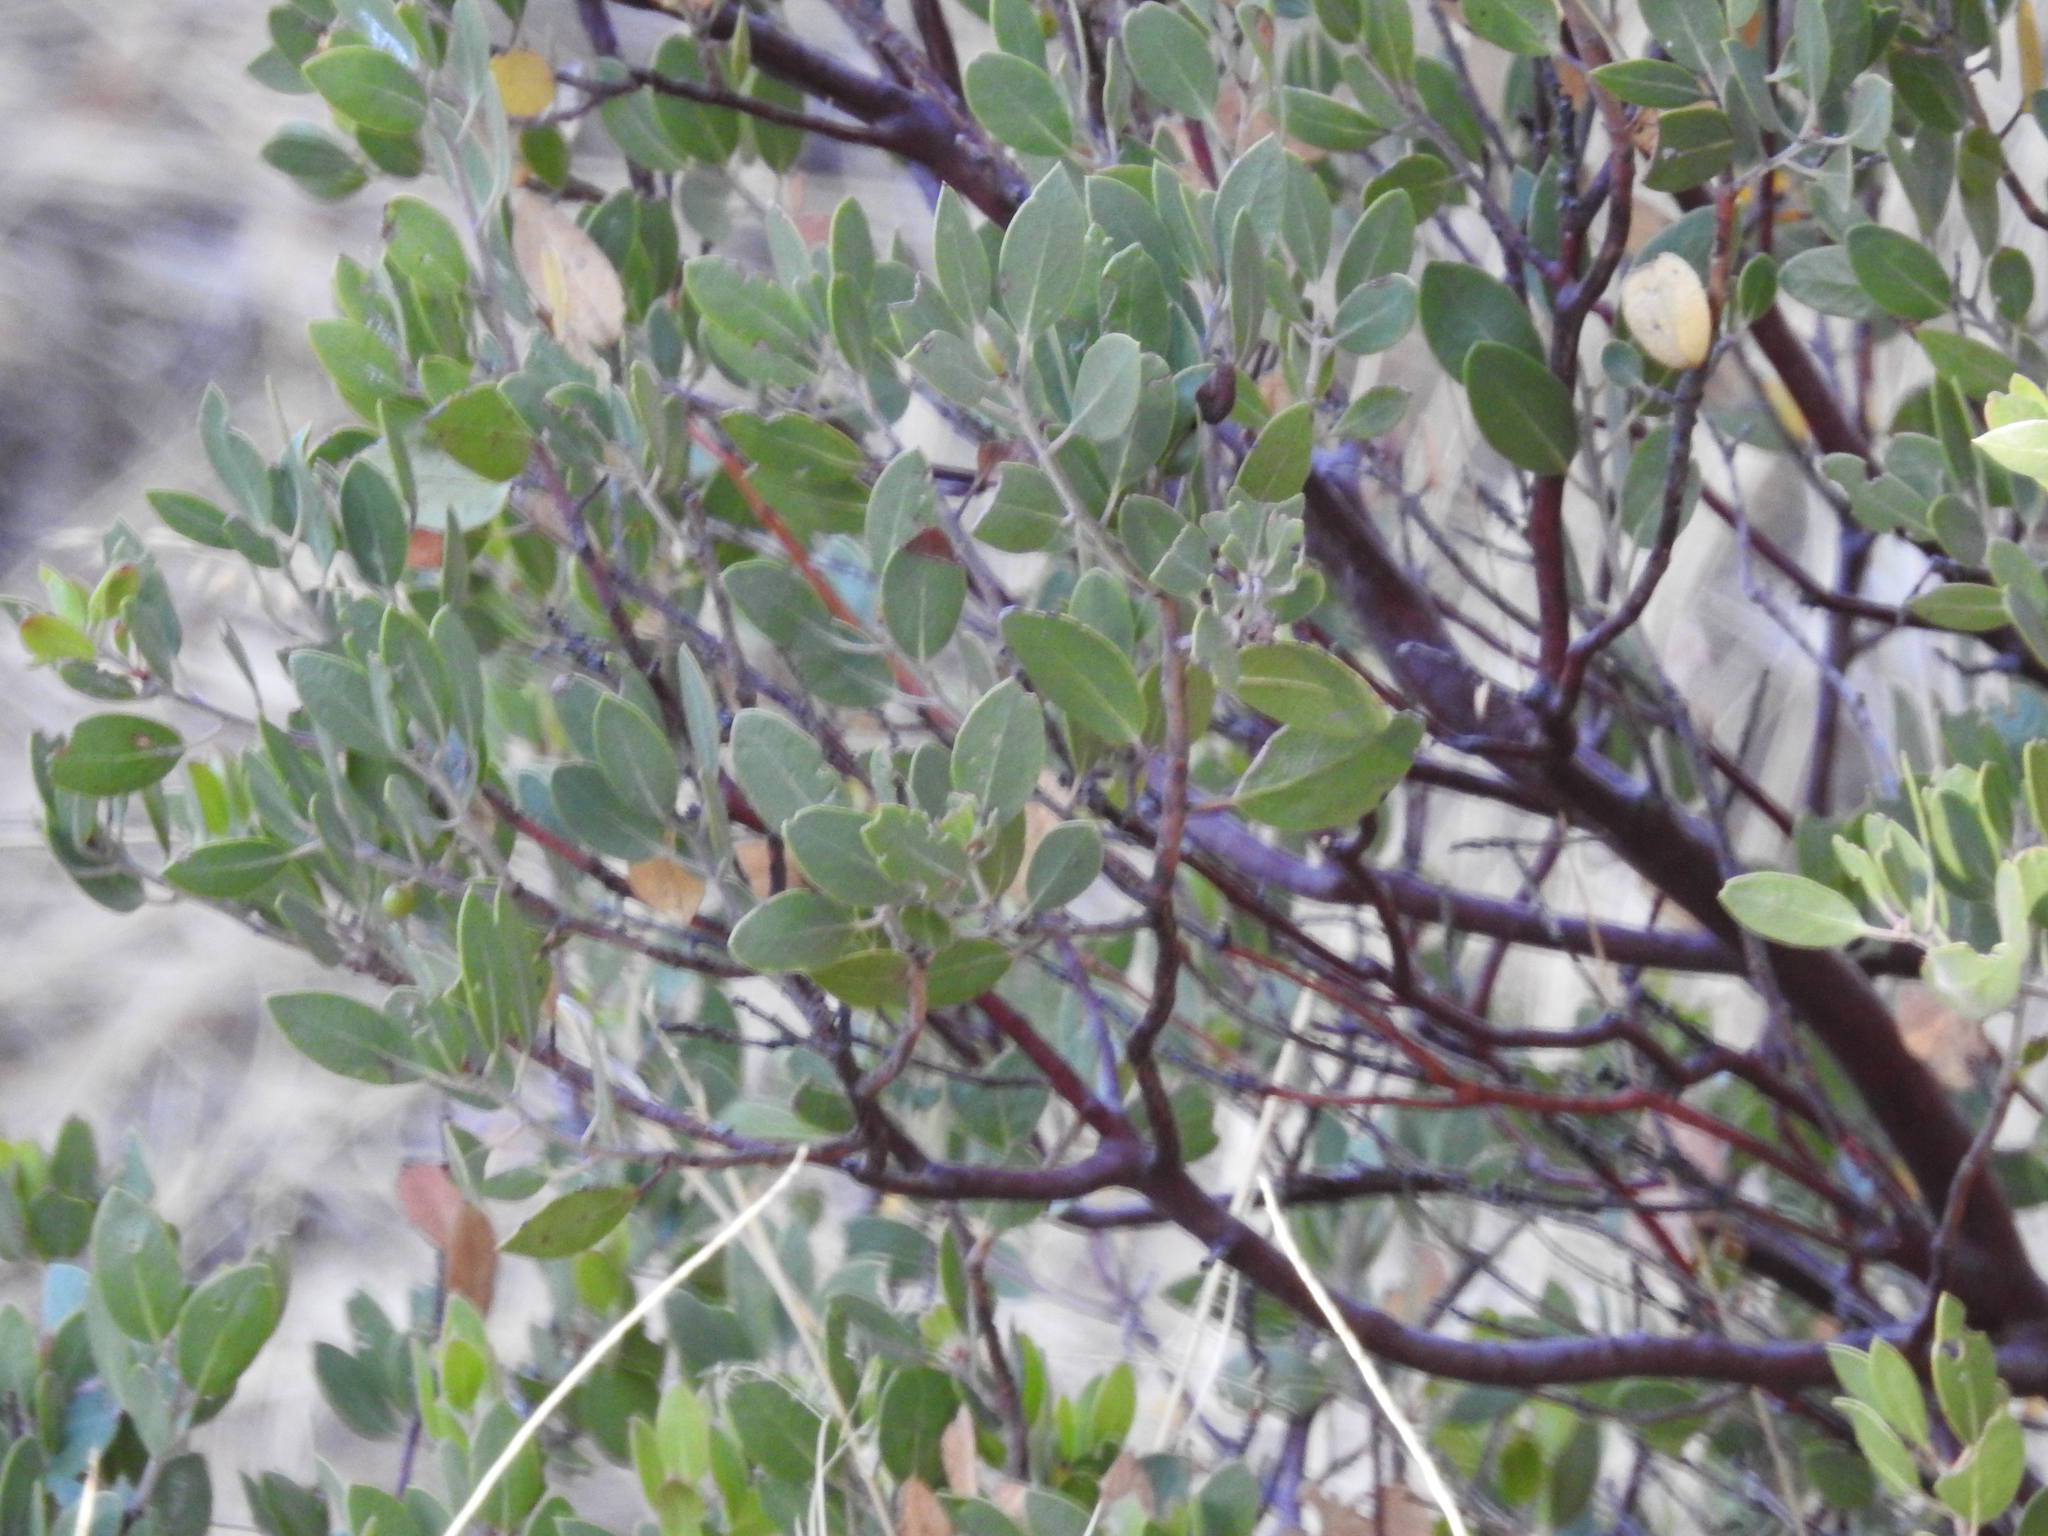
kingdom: Plantae
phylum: Tracheophyta
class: Magnoliopsida
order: Ericales
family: Ericaceae
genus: Arctostaphylos
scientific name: Arctostaphylos pungens
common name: Mexican manzanita
